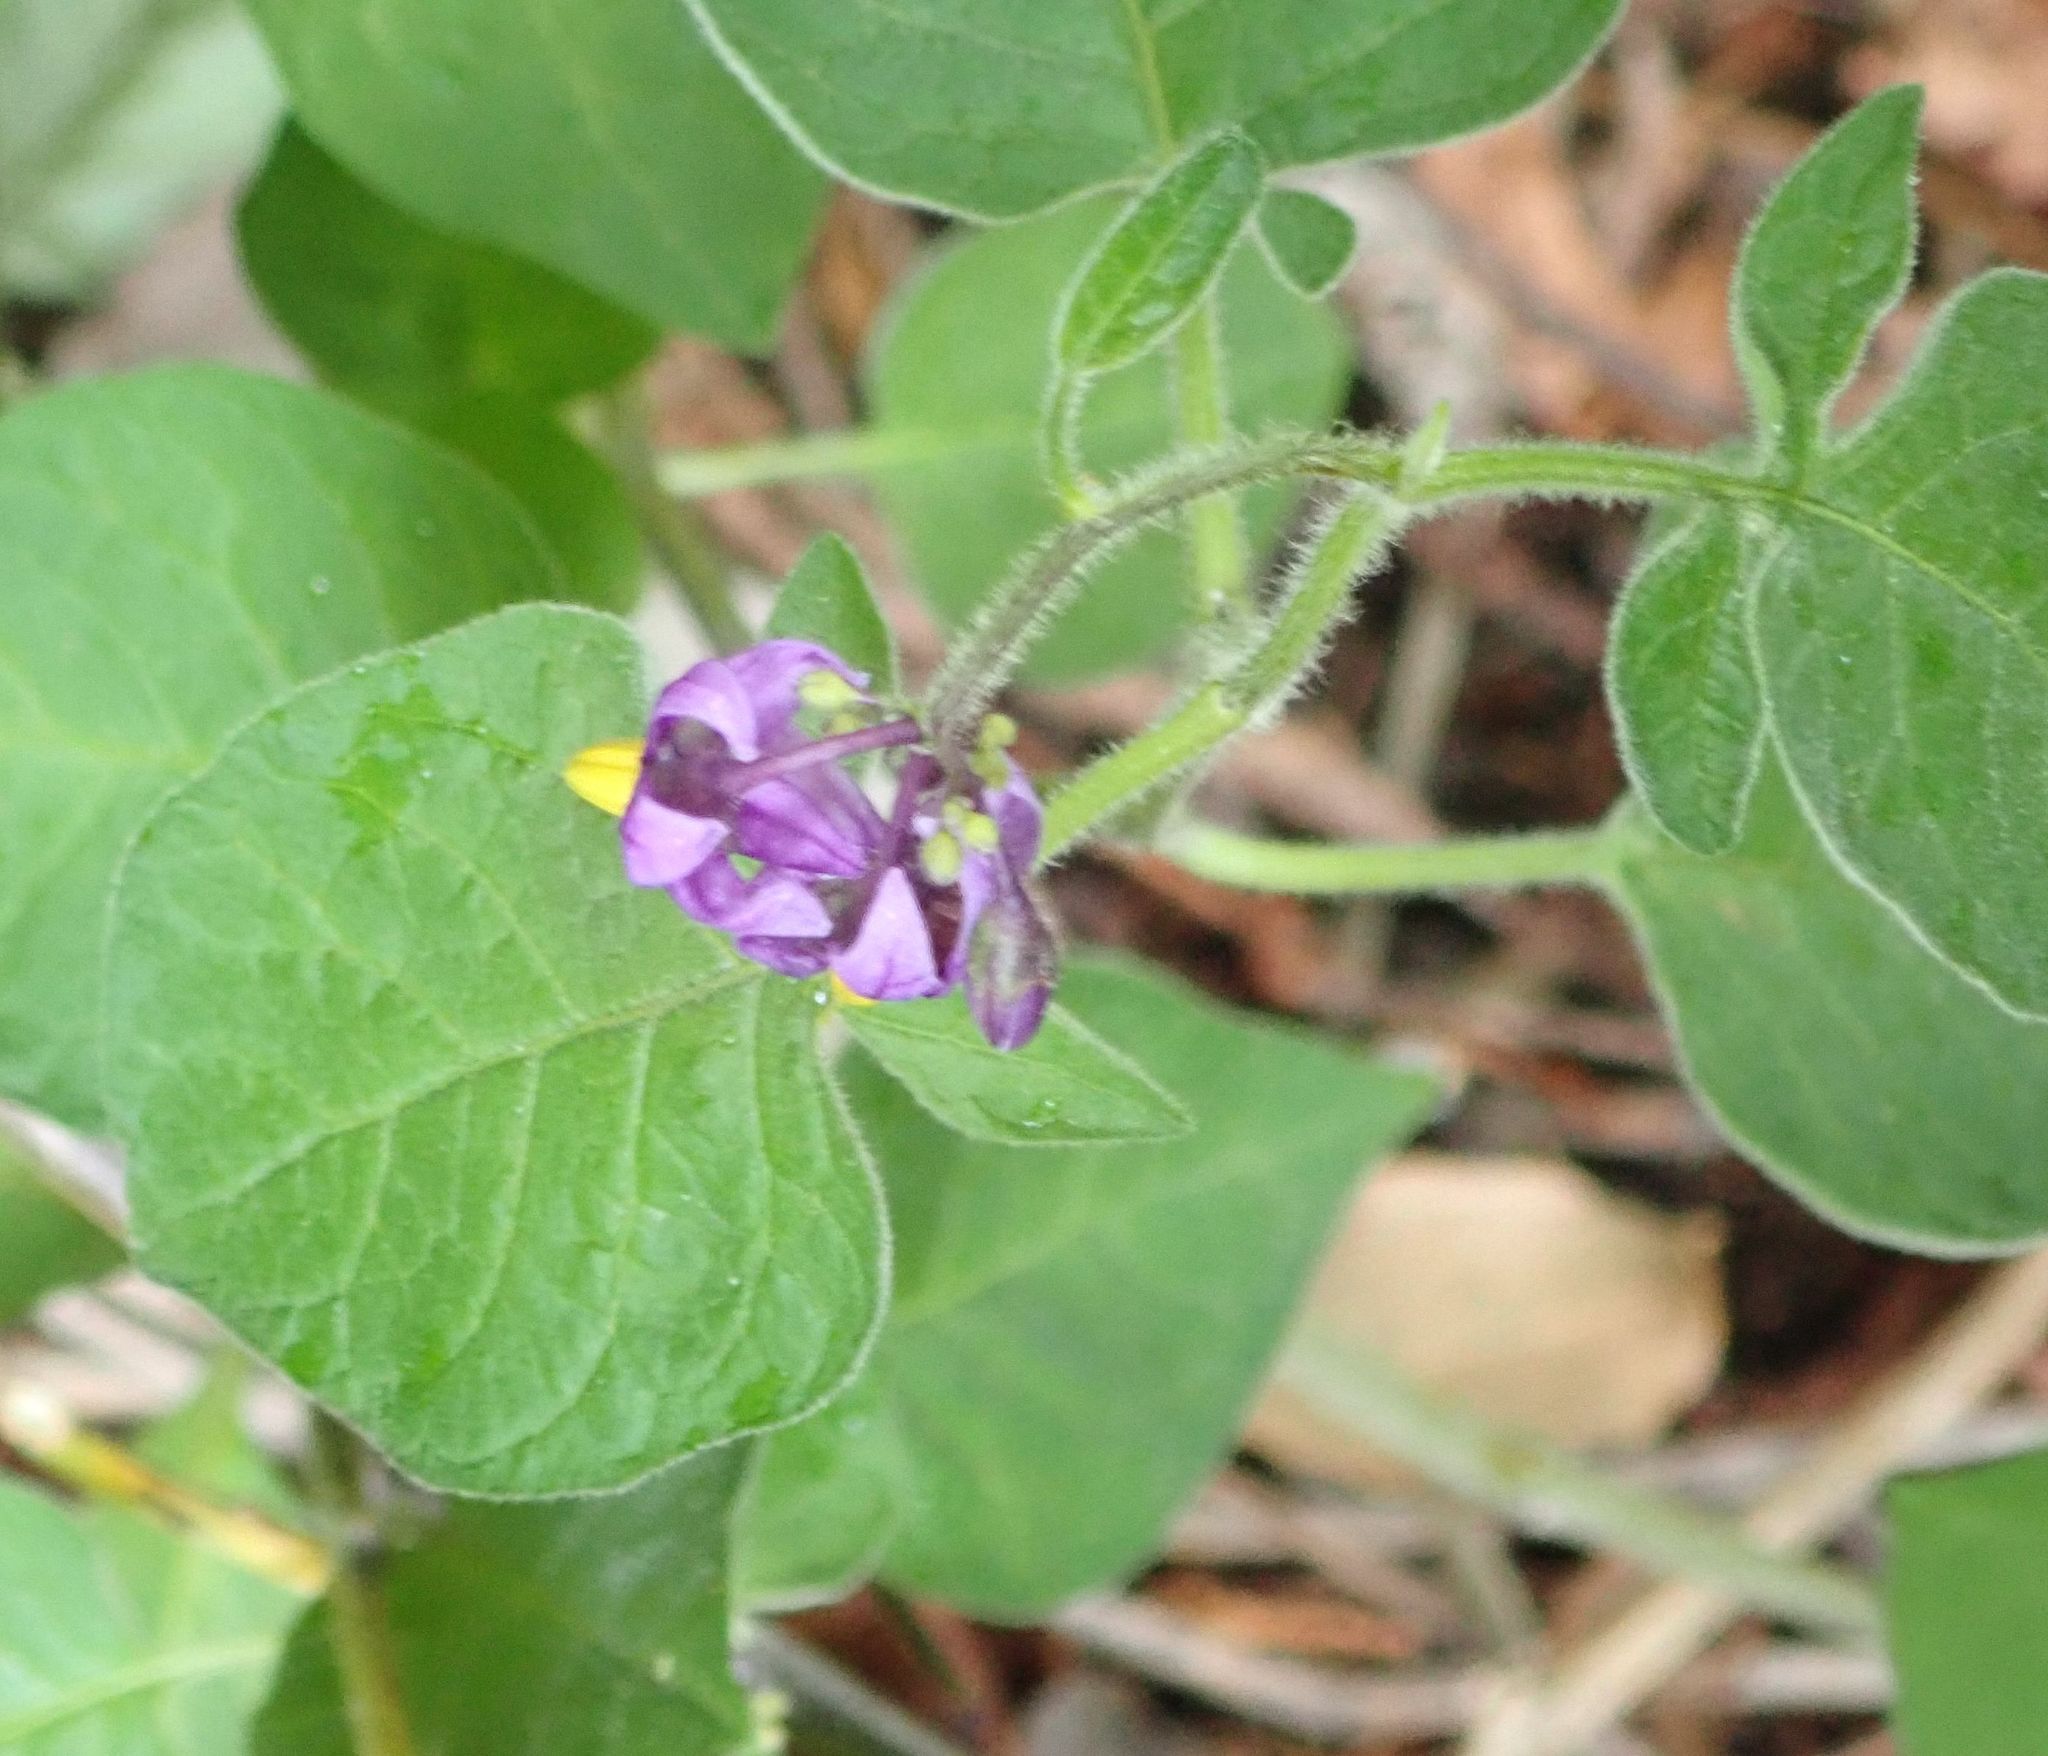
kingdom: Plantae
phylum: Tracheophyta
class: Magnoliopsida
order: Solanales
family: Solanaceae
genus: Solanum
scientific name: Solanum dulcamara
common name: Climbing nightshade
